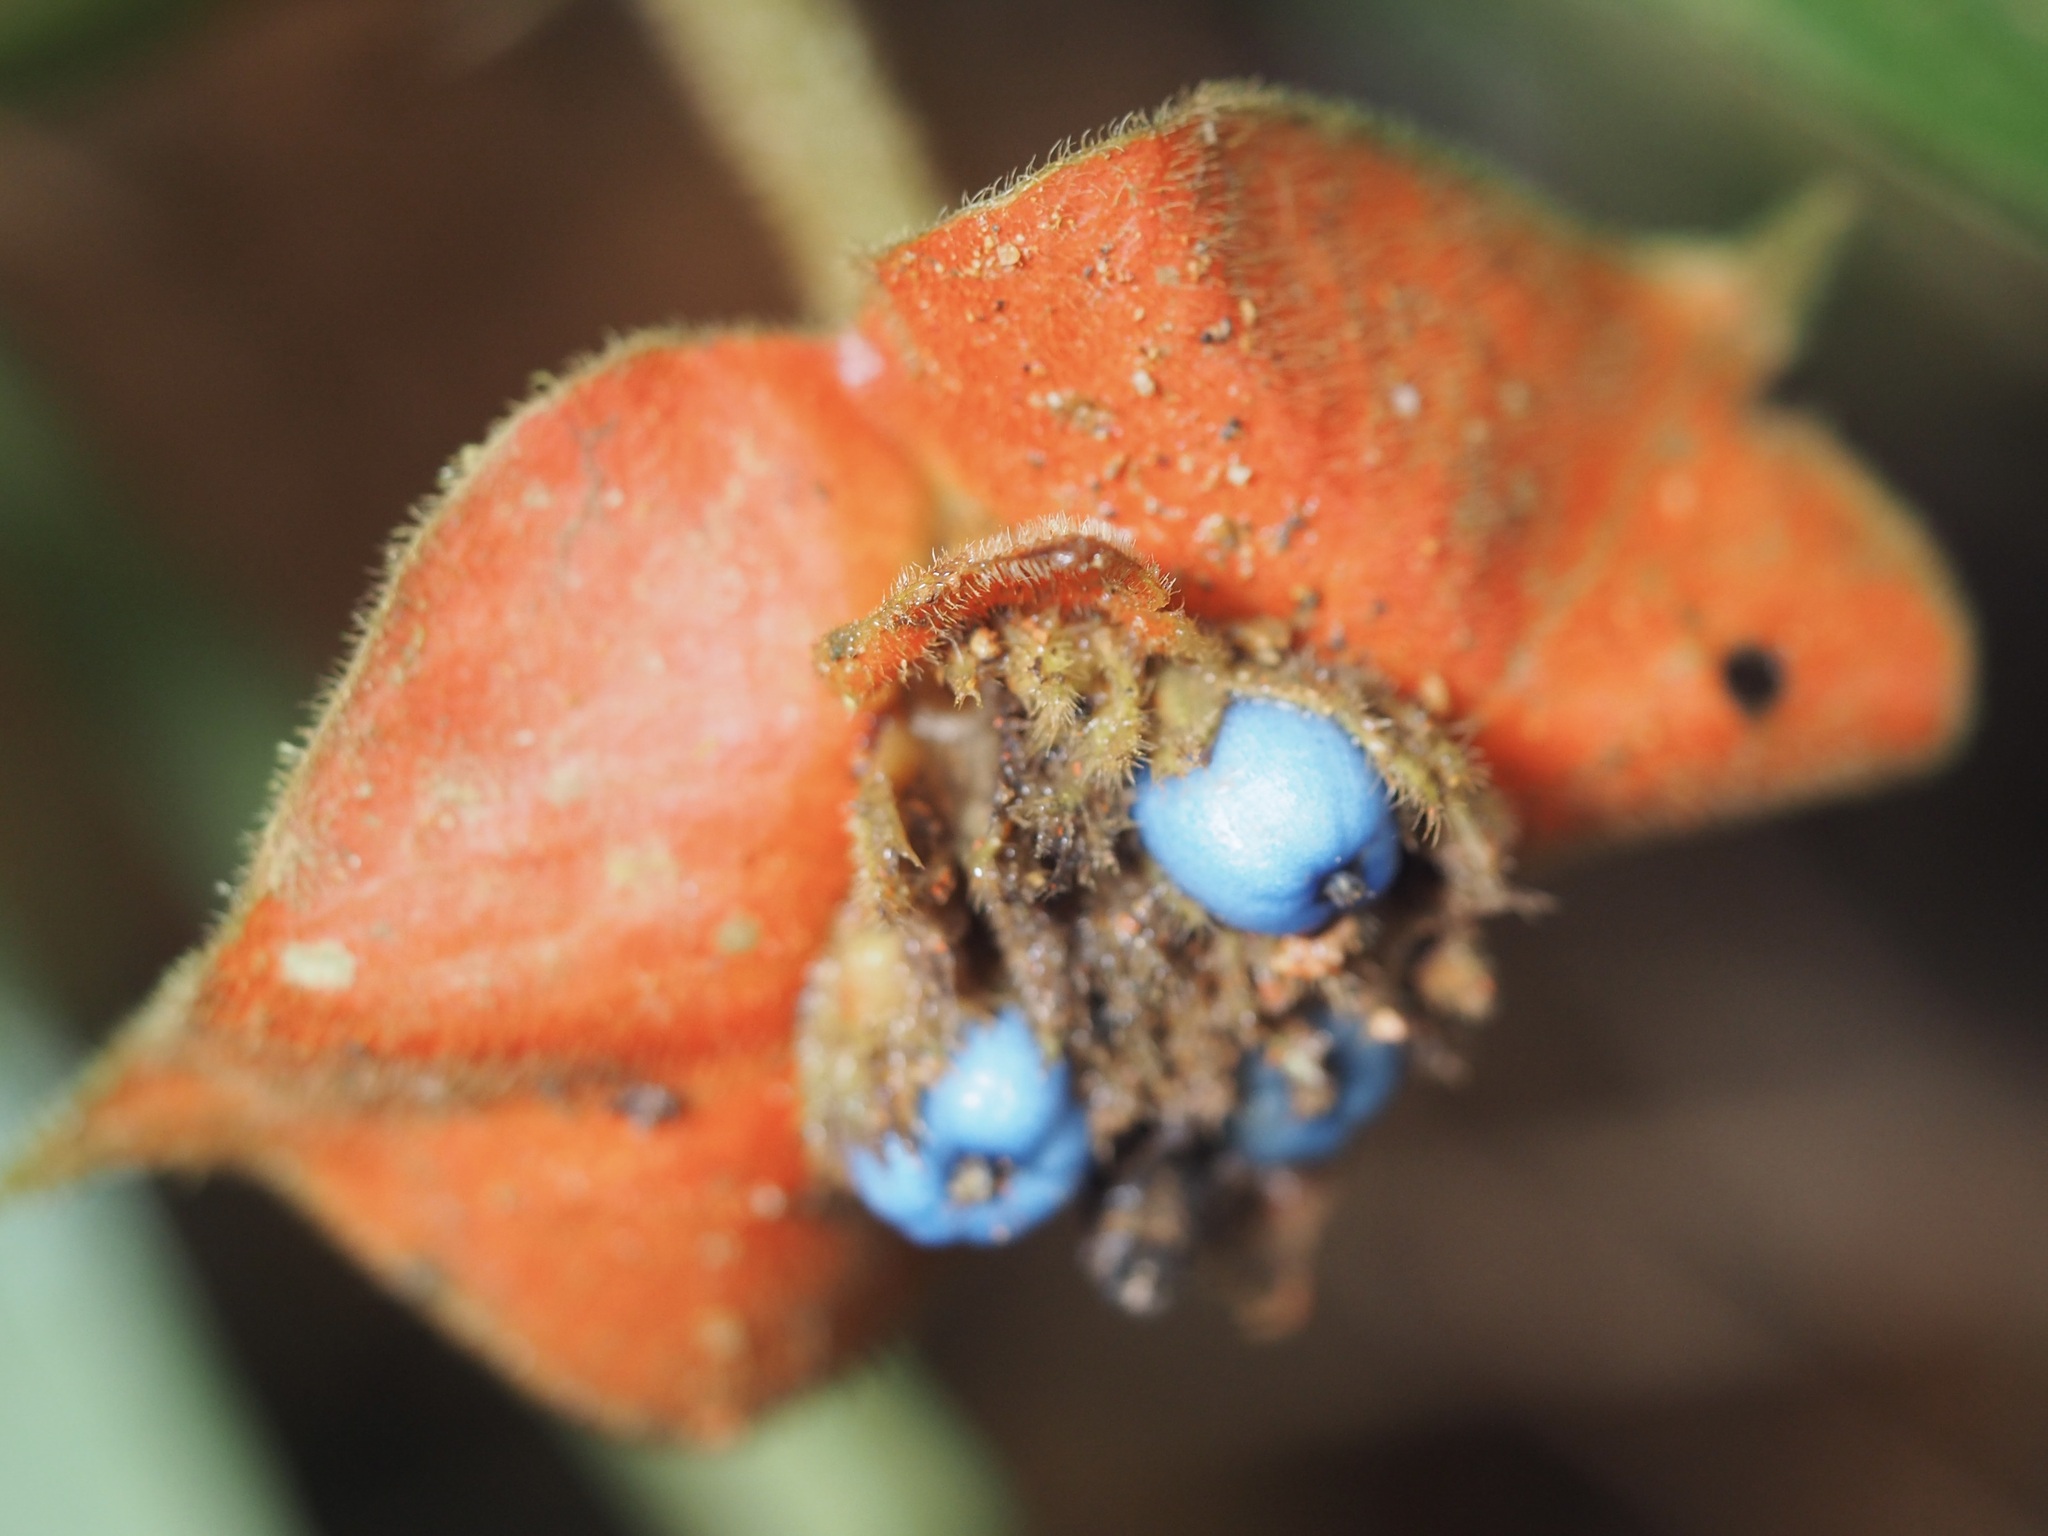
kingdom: Plantae
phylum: Tracheophyta
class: Magnoliopsida
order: Gentianales
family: Rubiaceae
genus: Palicourea
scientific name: Palicourea tomentosa
